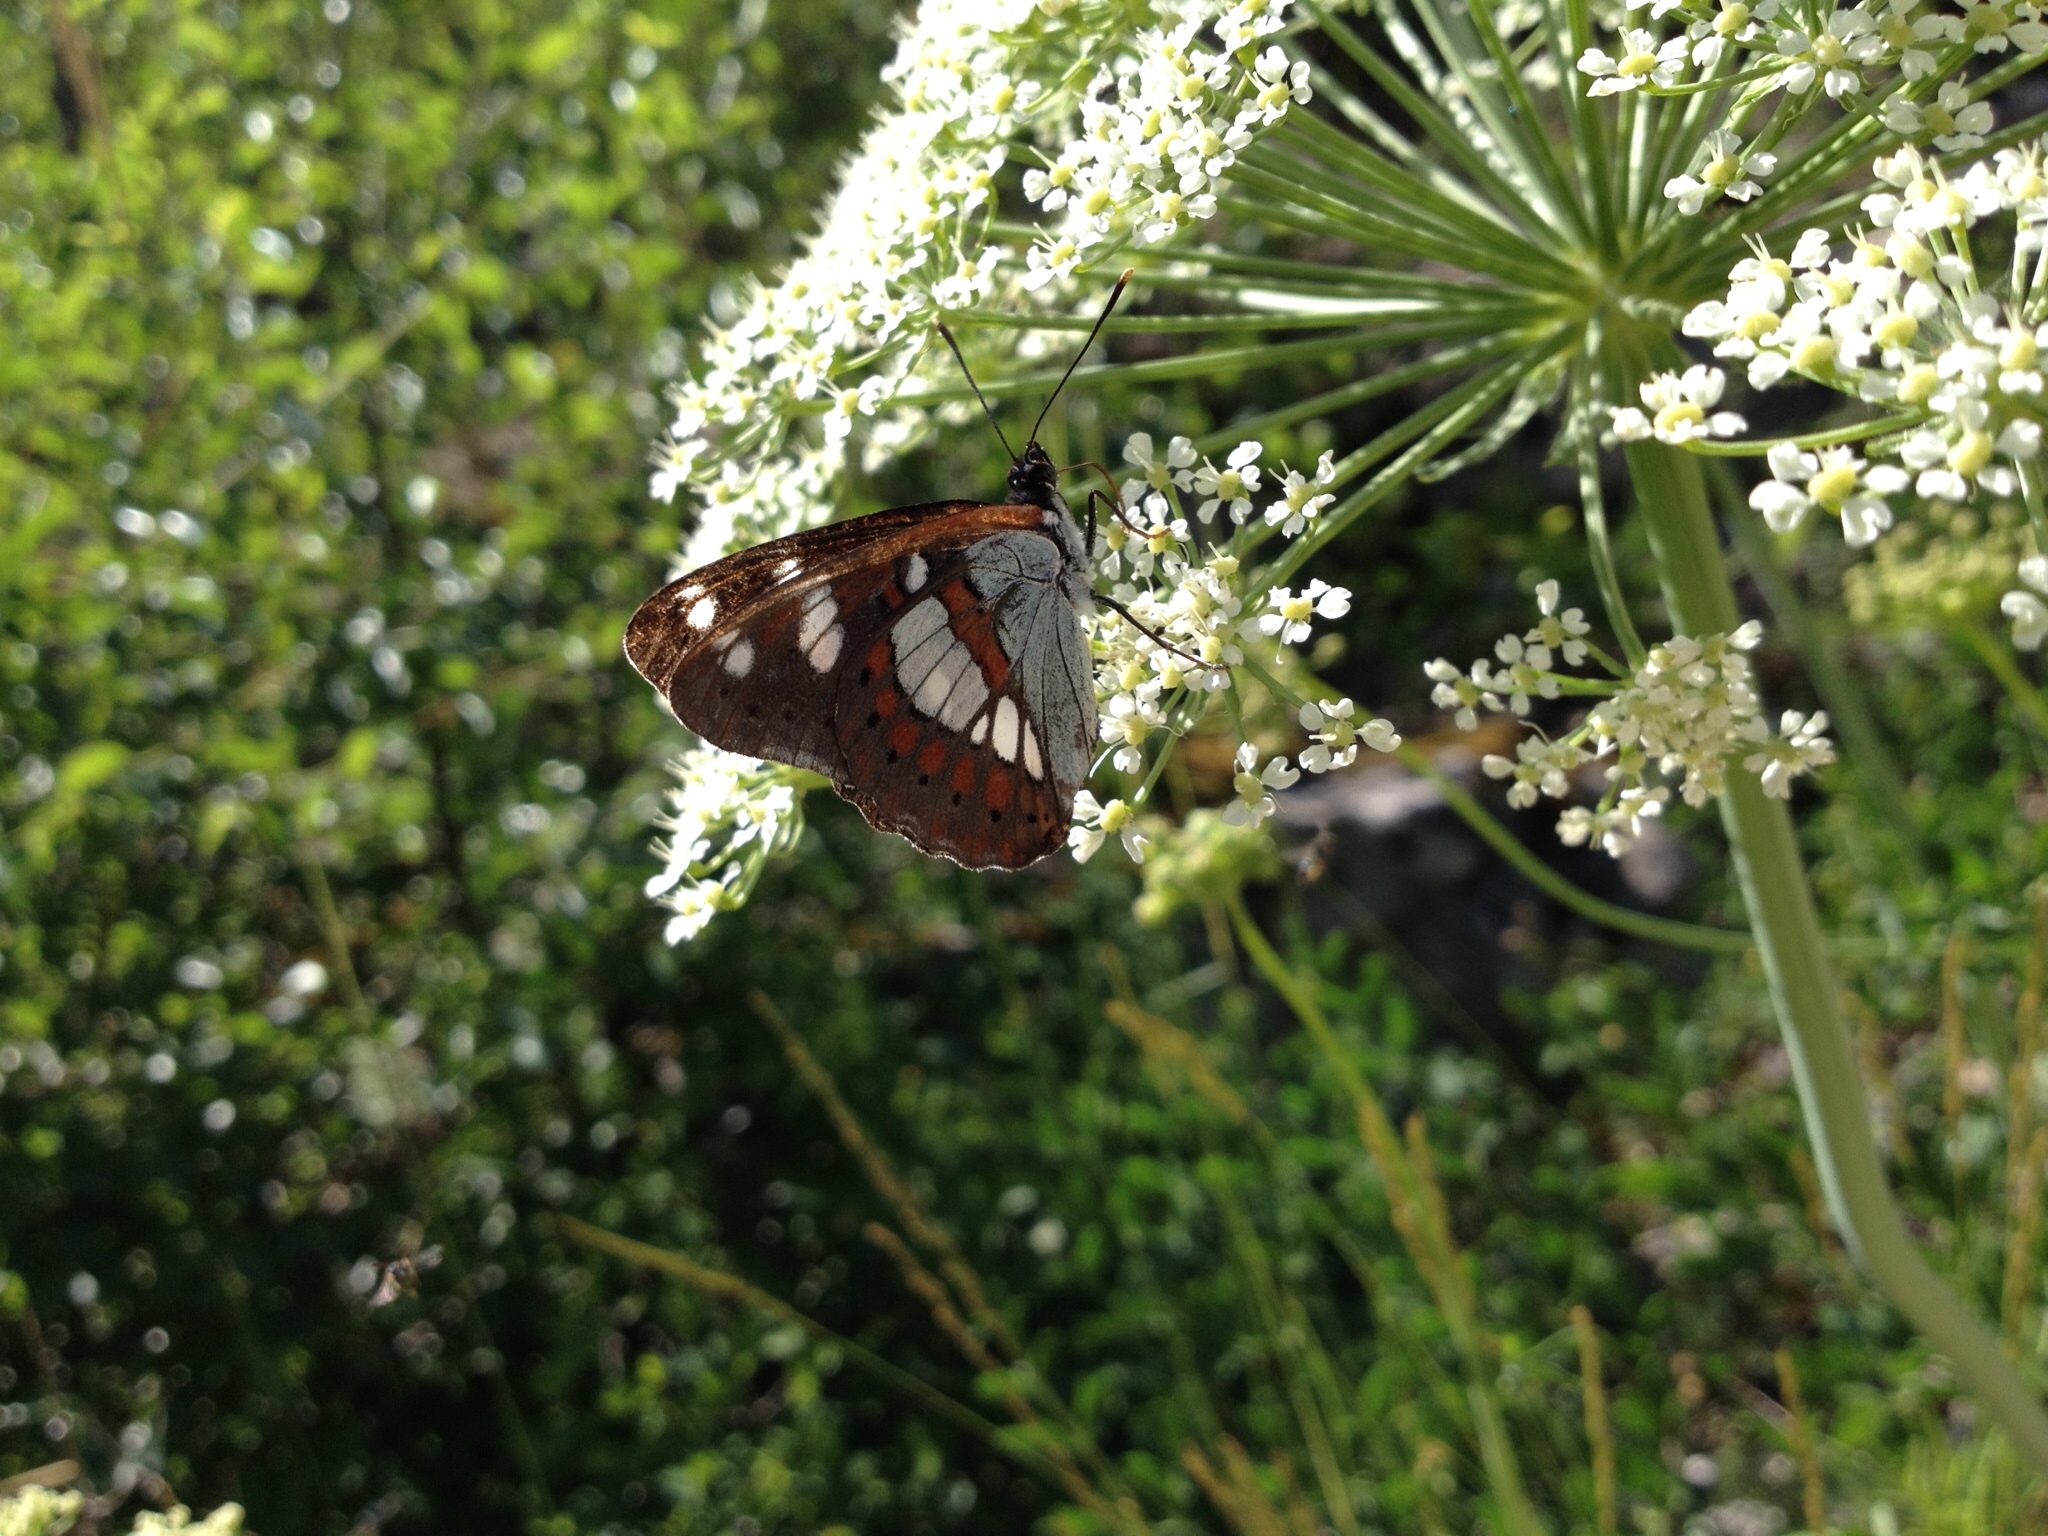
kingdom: Animalia
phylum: Arthropoda
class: Insecta
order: Lepidoptera
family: Nymphalidae
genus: Limenitis
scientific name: Limenitis reducta
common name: Southern white admiral
